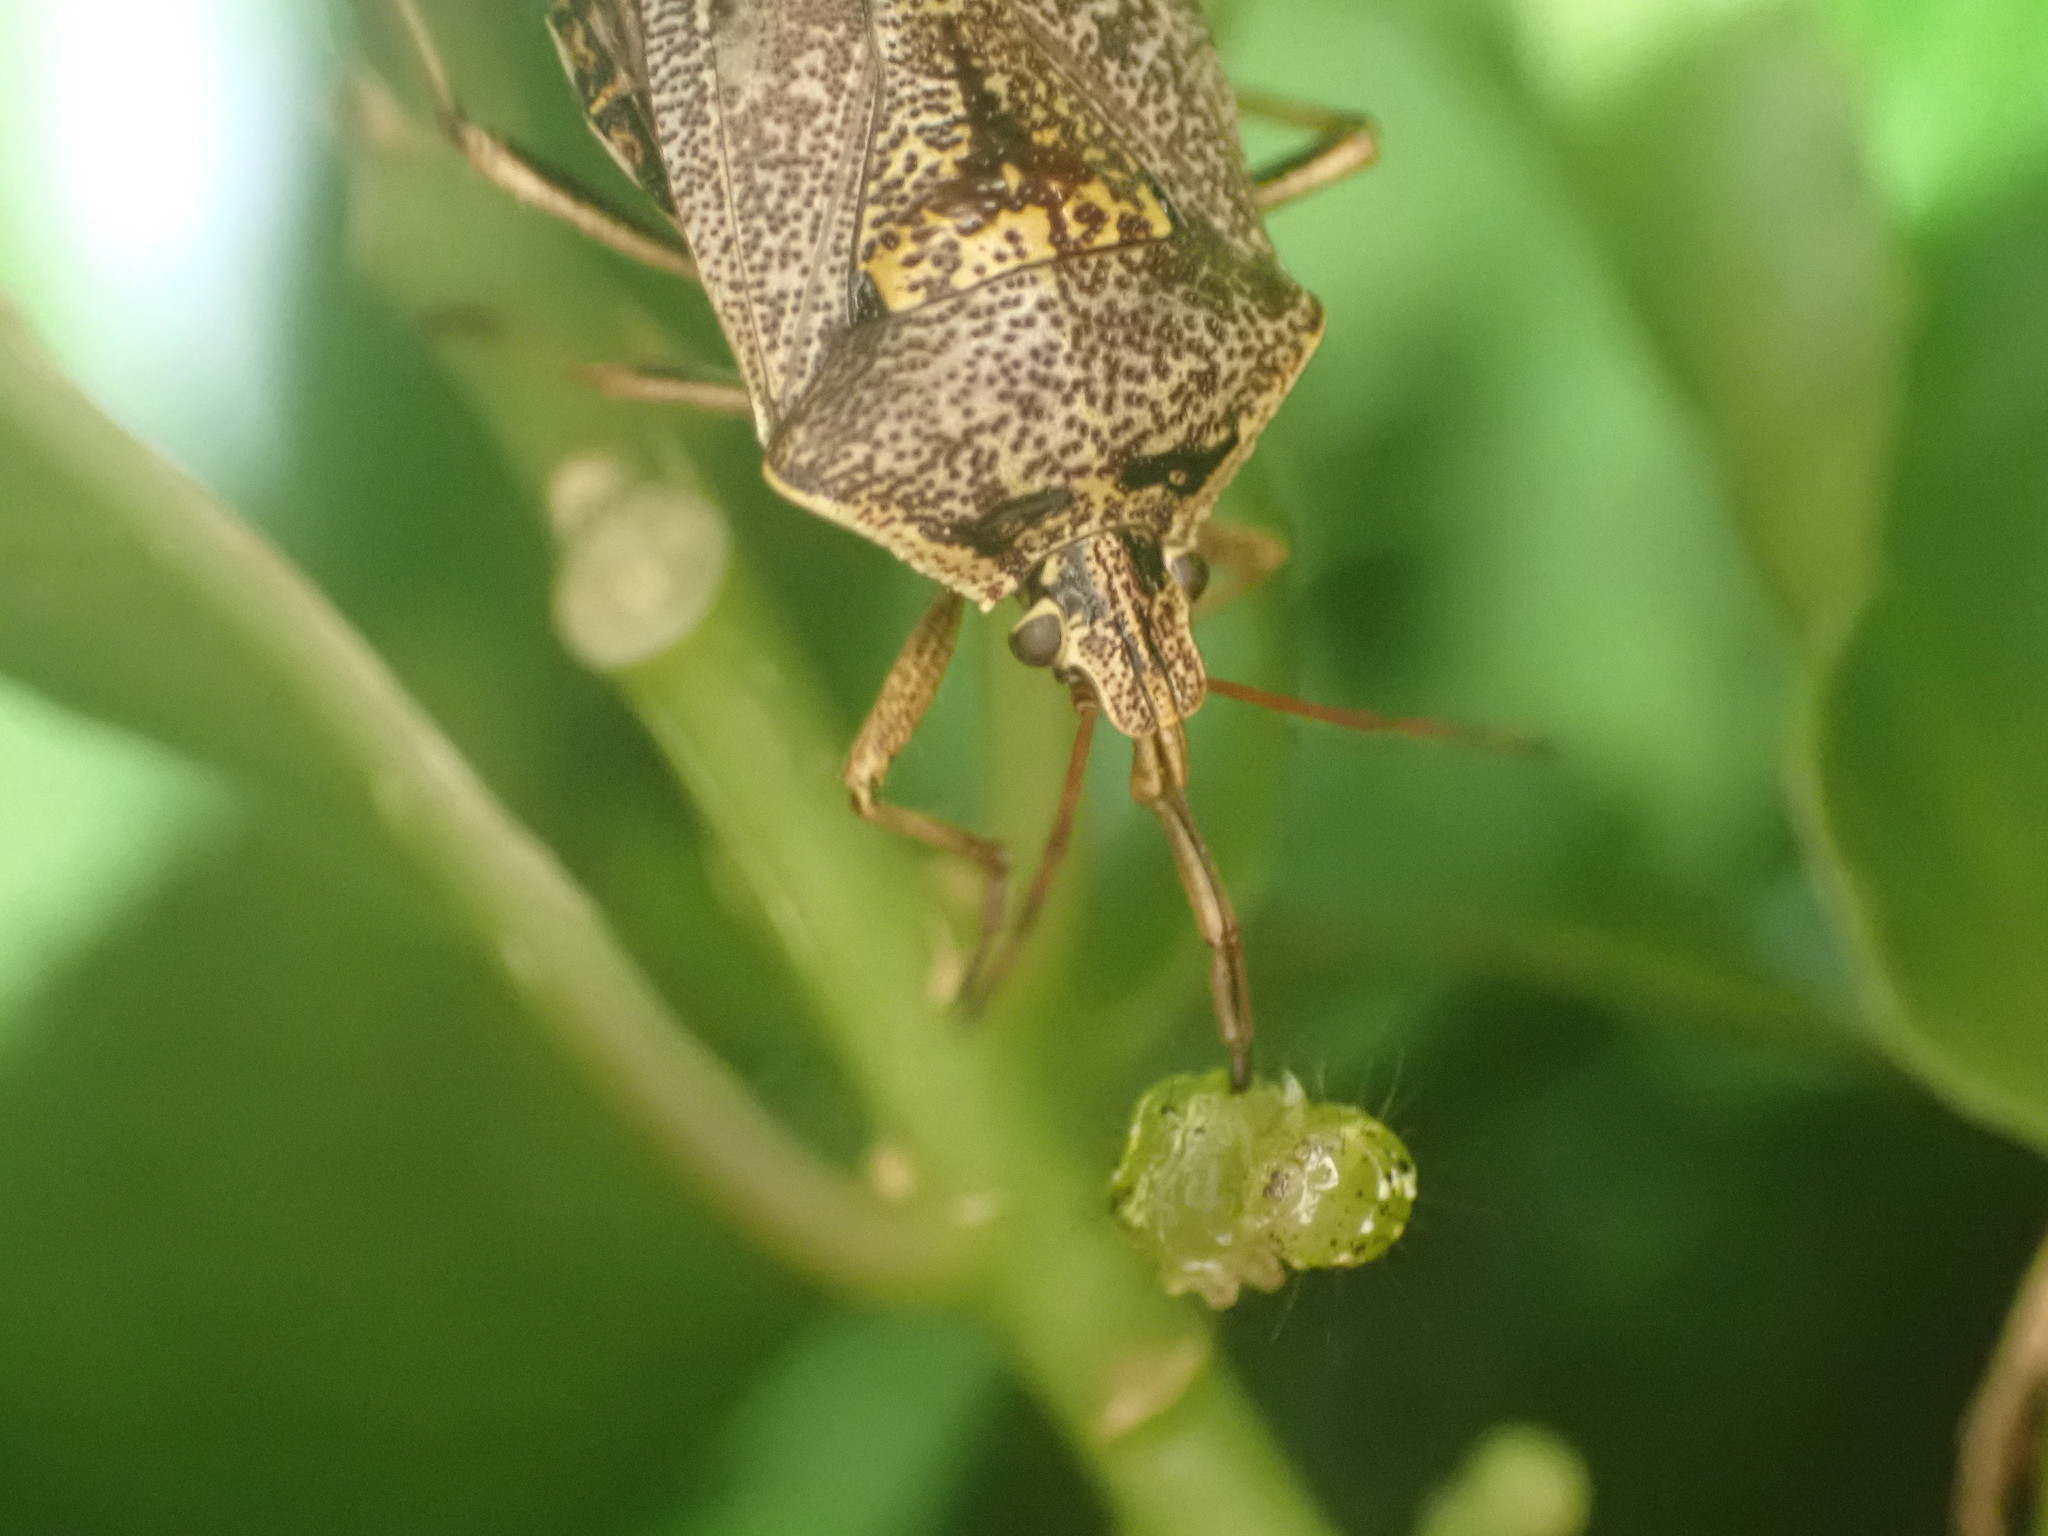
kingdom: Animalia
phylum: Arthropoda
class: Insecta
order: Hemiptera
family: Pentatomidae
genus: Cermatulus
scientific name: Cermatulus nasalis
